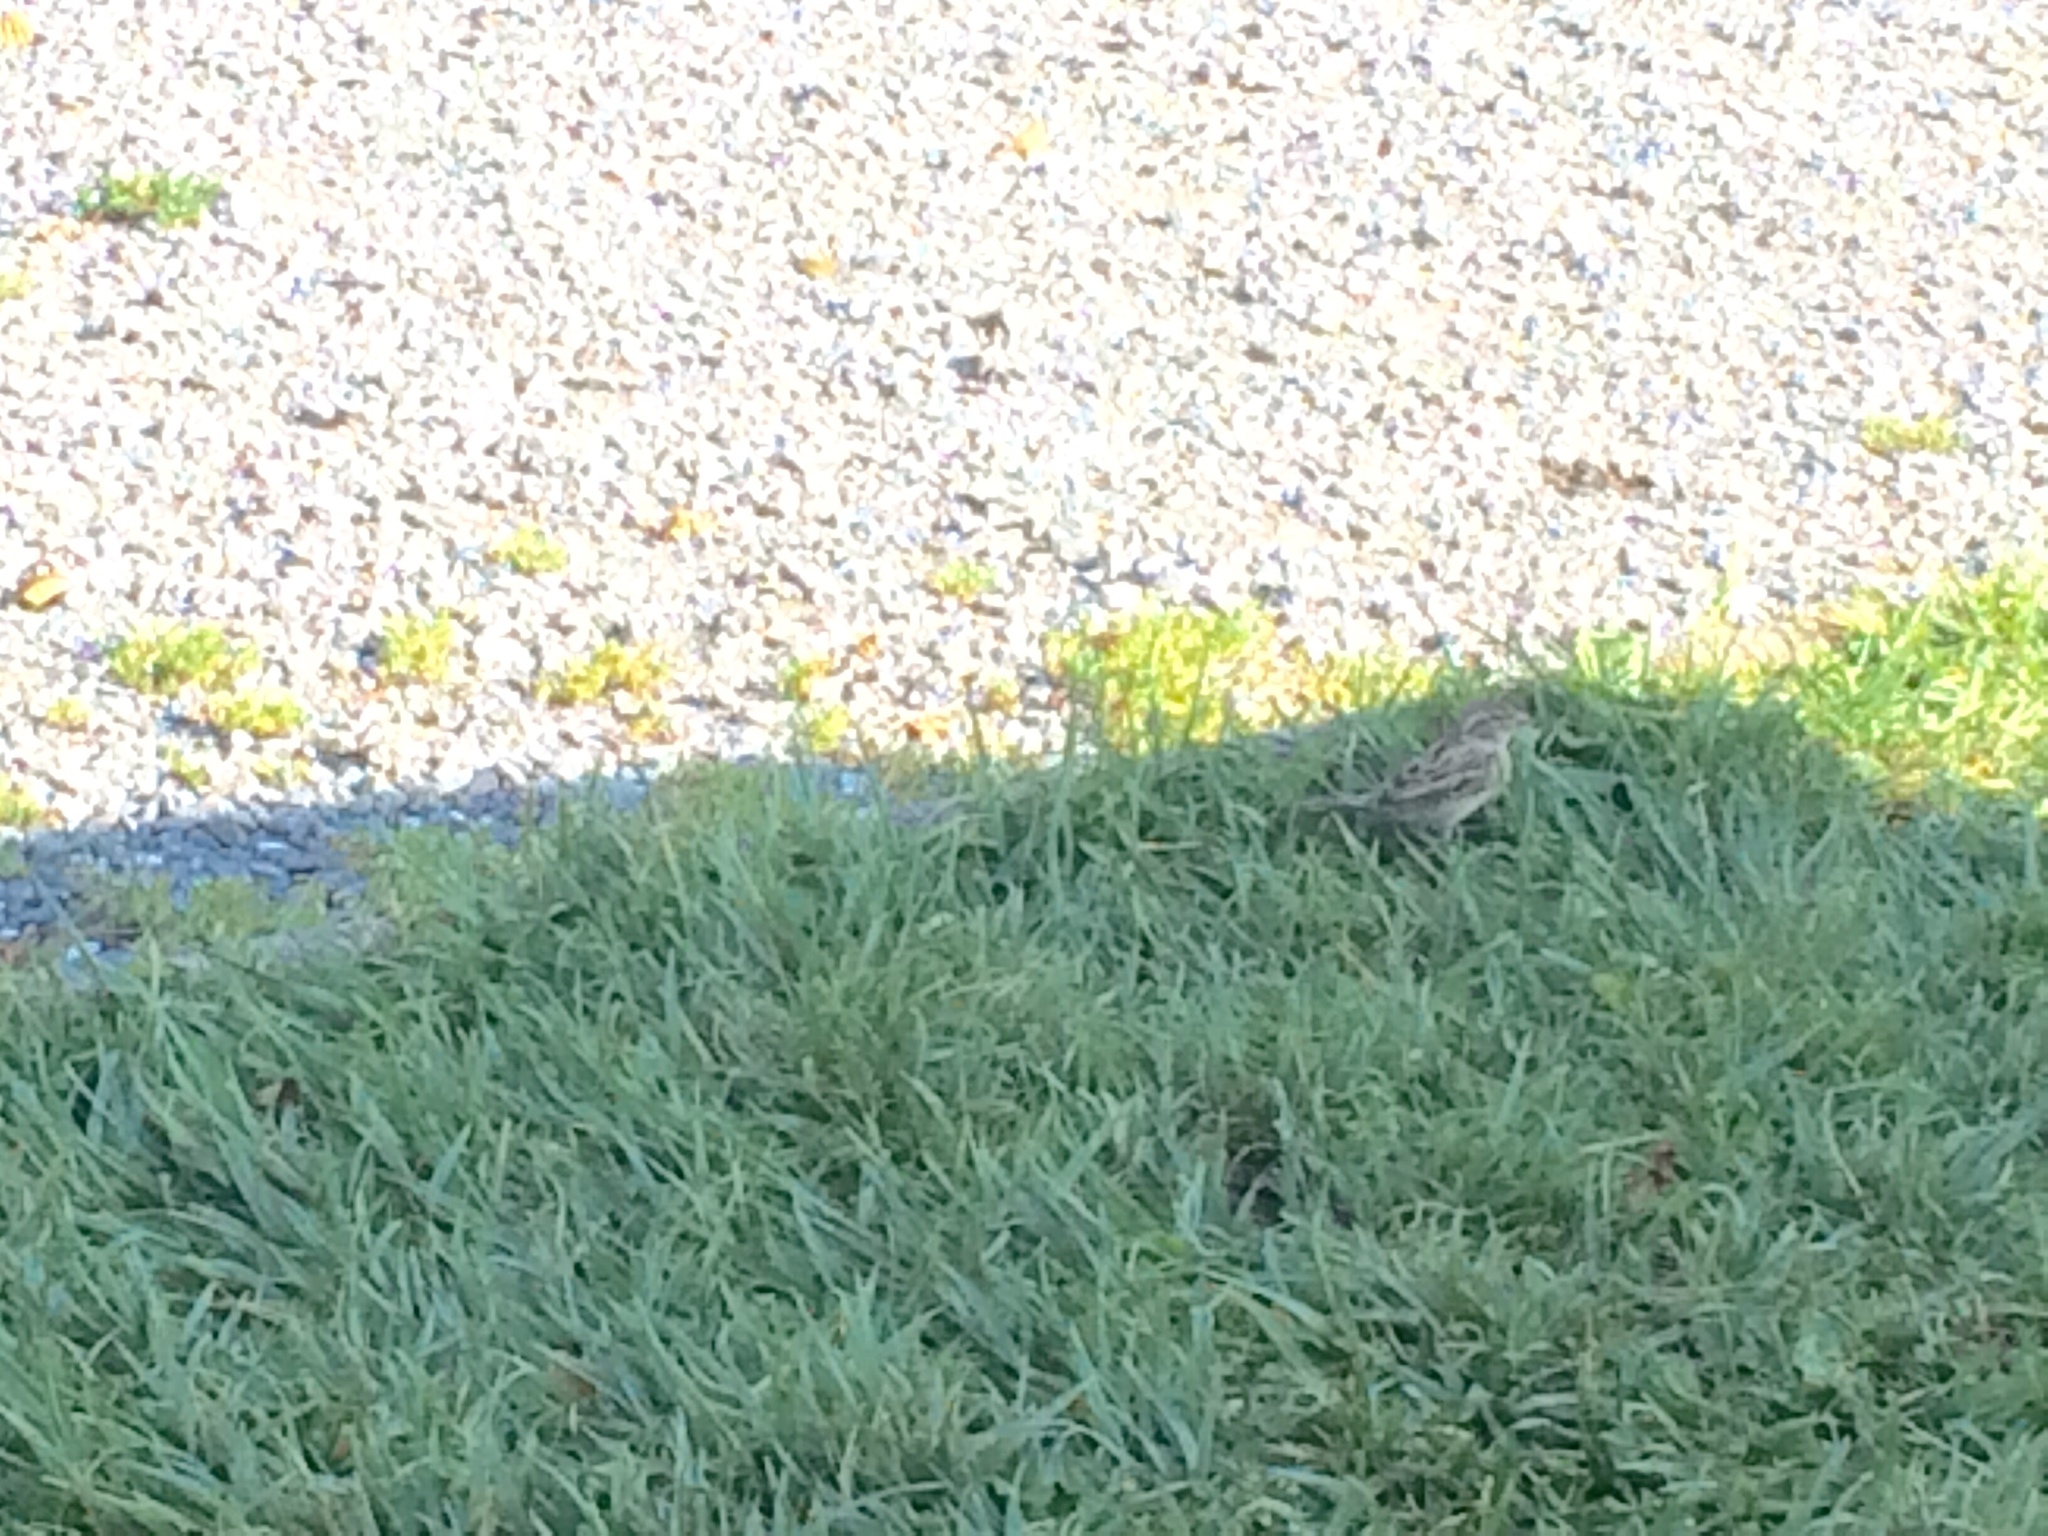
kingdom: Animalia
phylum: Chordata
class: Aves
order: Passeriformes
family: Passeridae
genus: Passer
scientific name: Passer domesticus
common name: House sparrow
